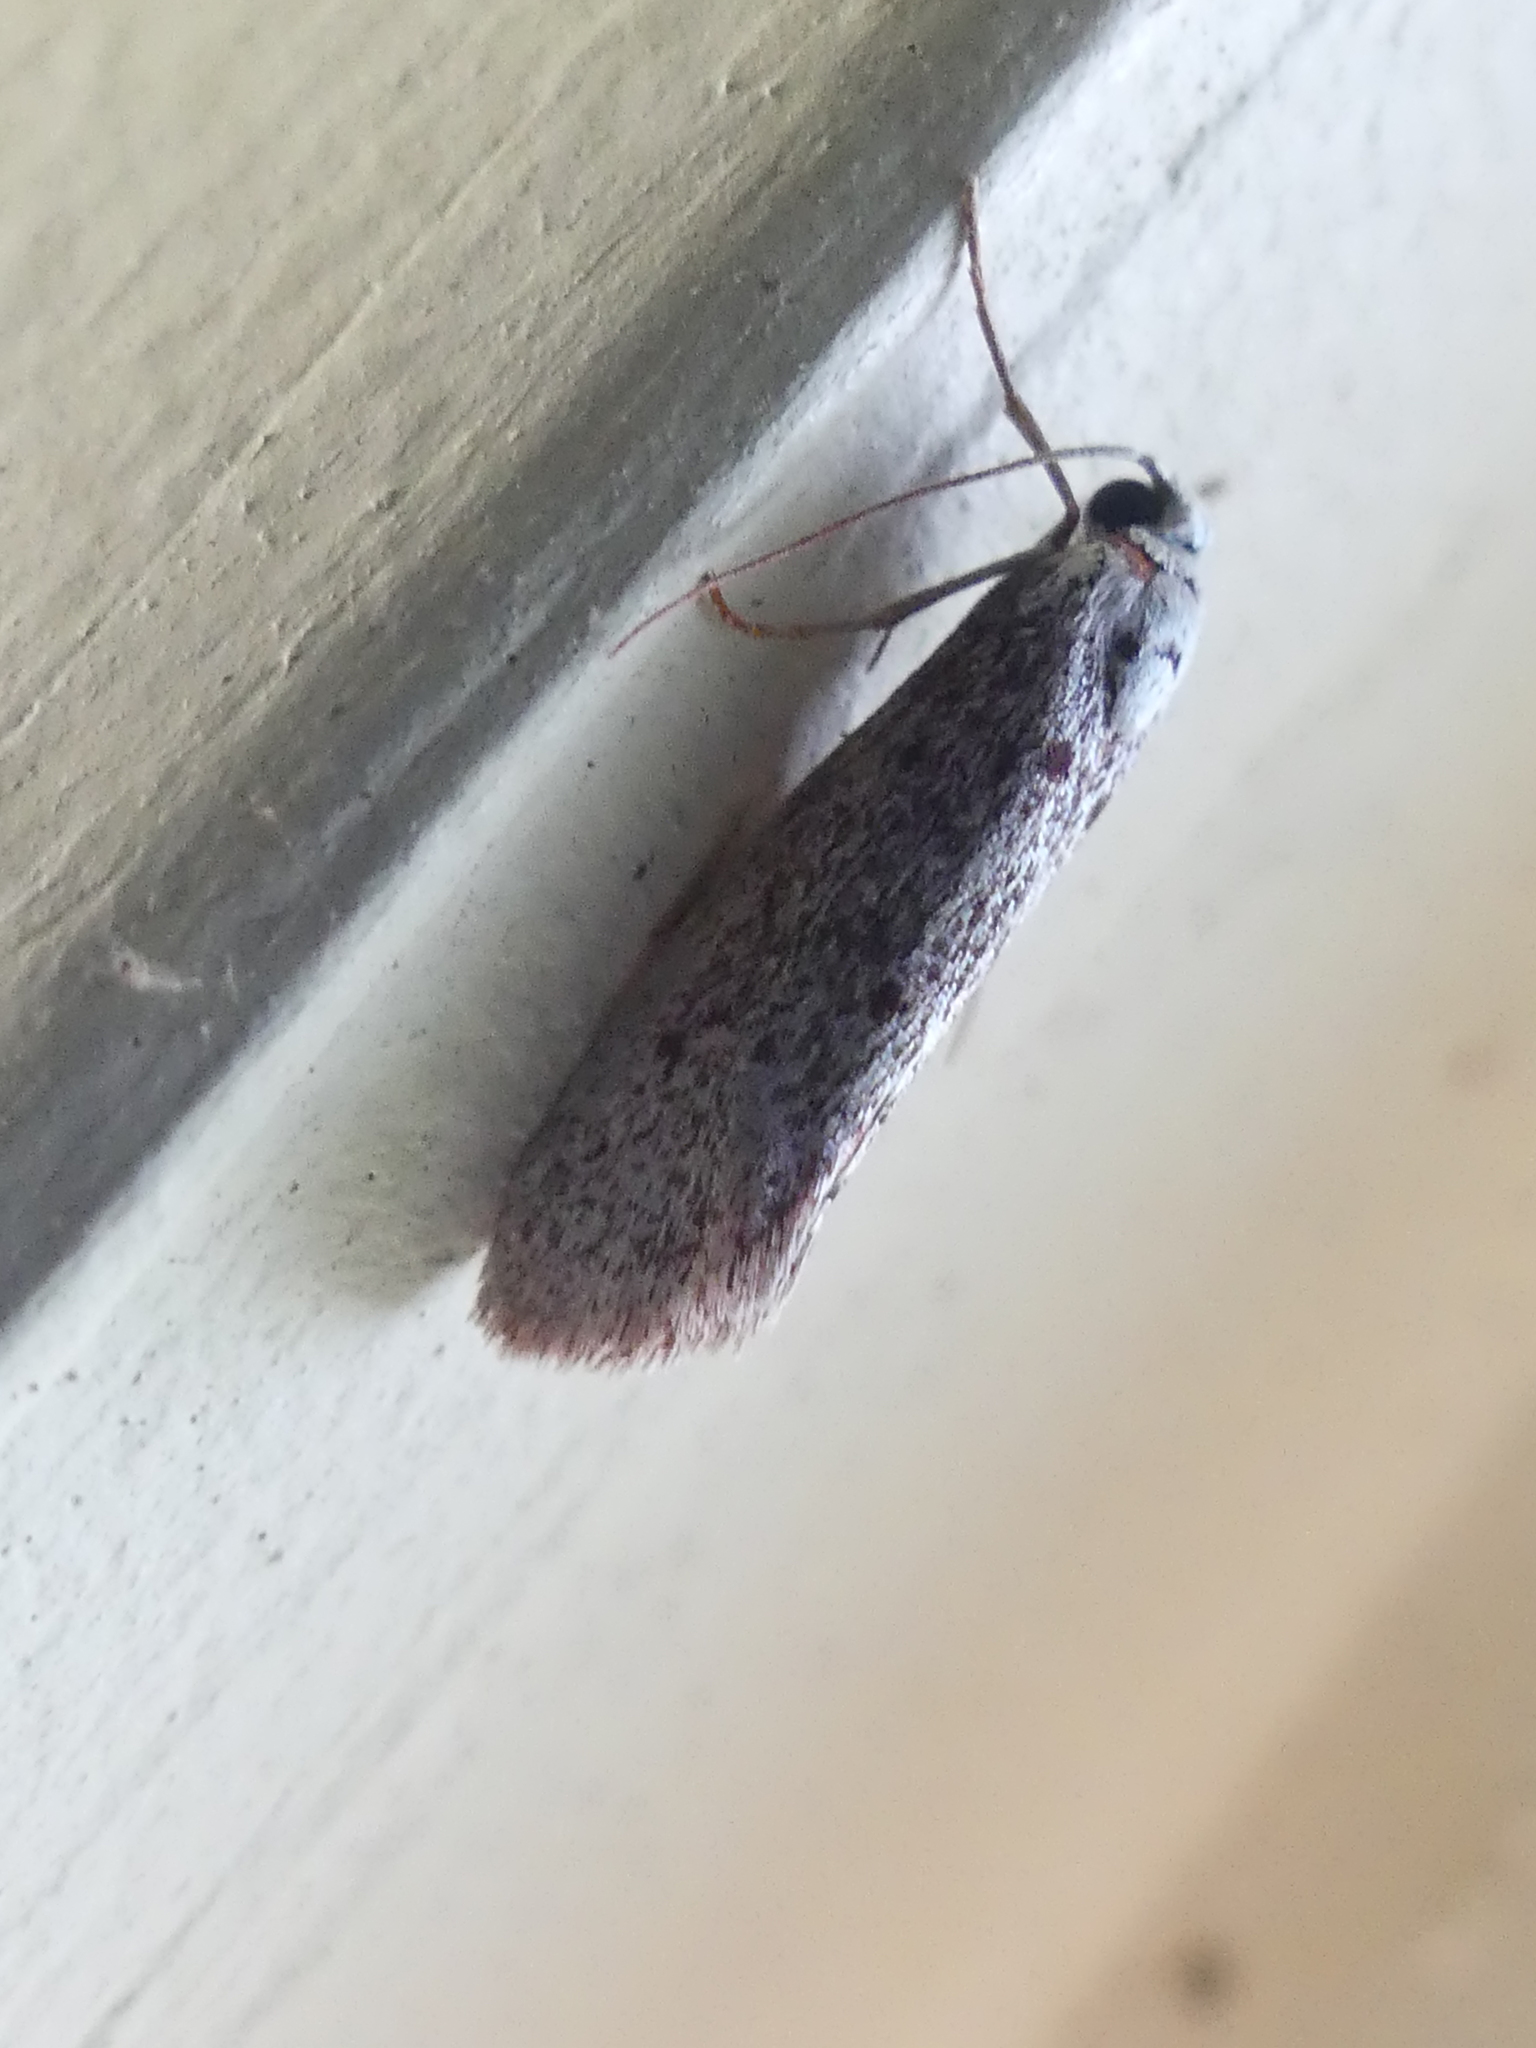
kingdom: Animalia
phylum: Arthropoda
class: Insecta
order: Lepidoptera
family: Lacturidae
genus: Lactura
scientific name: Lactura
